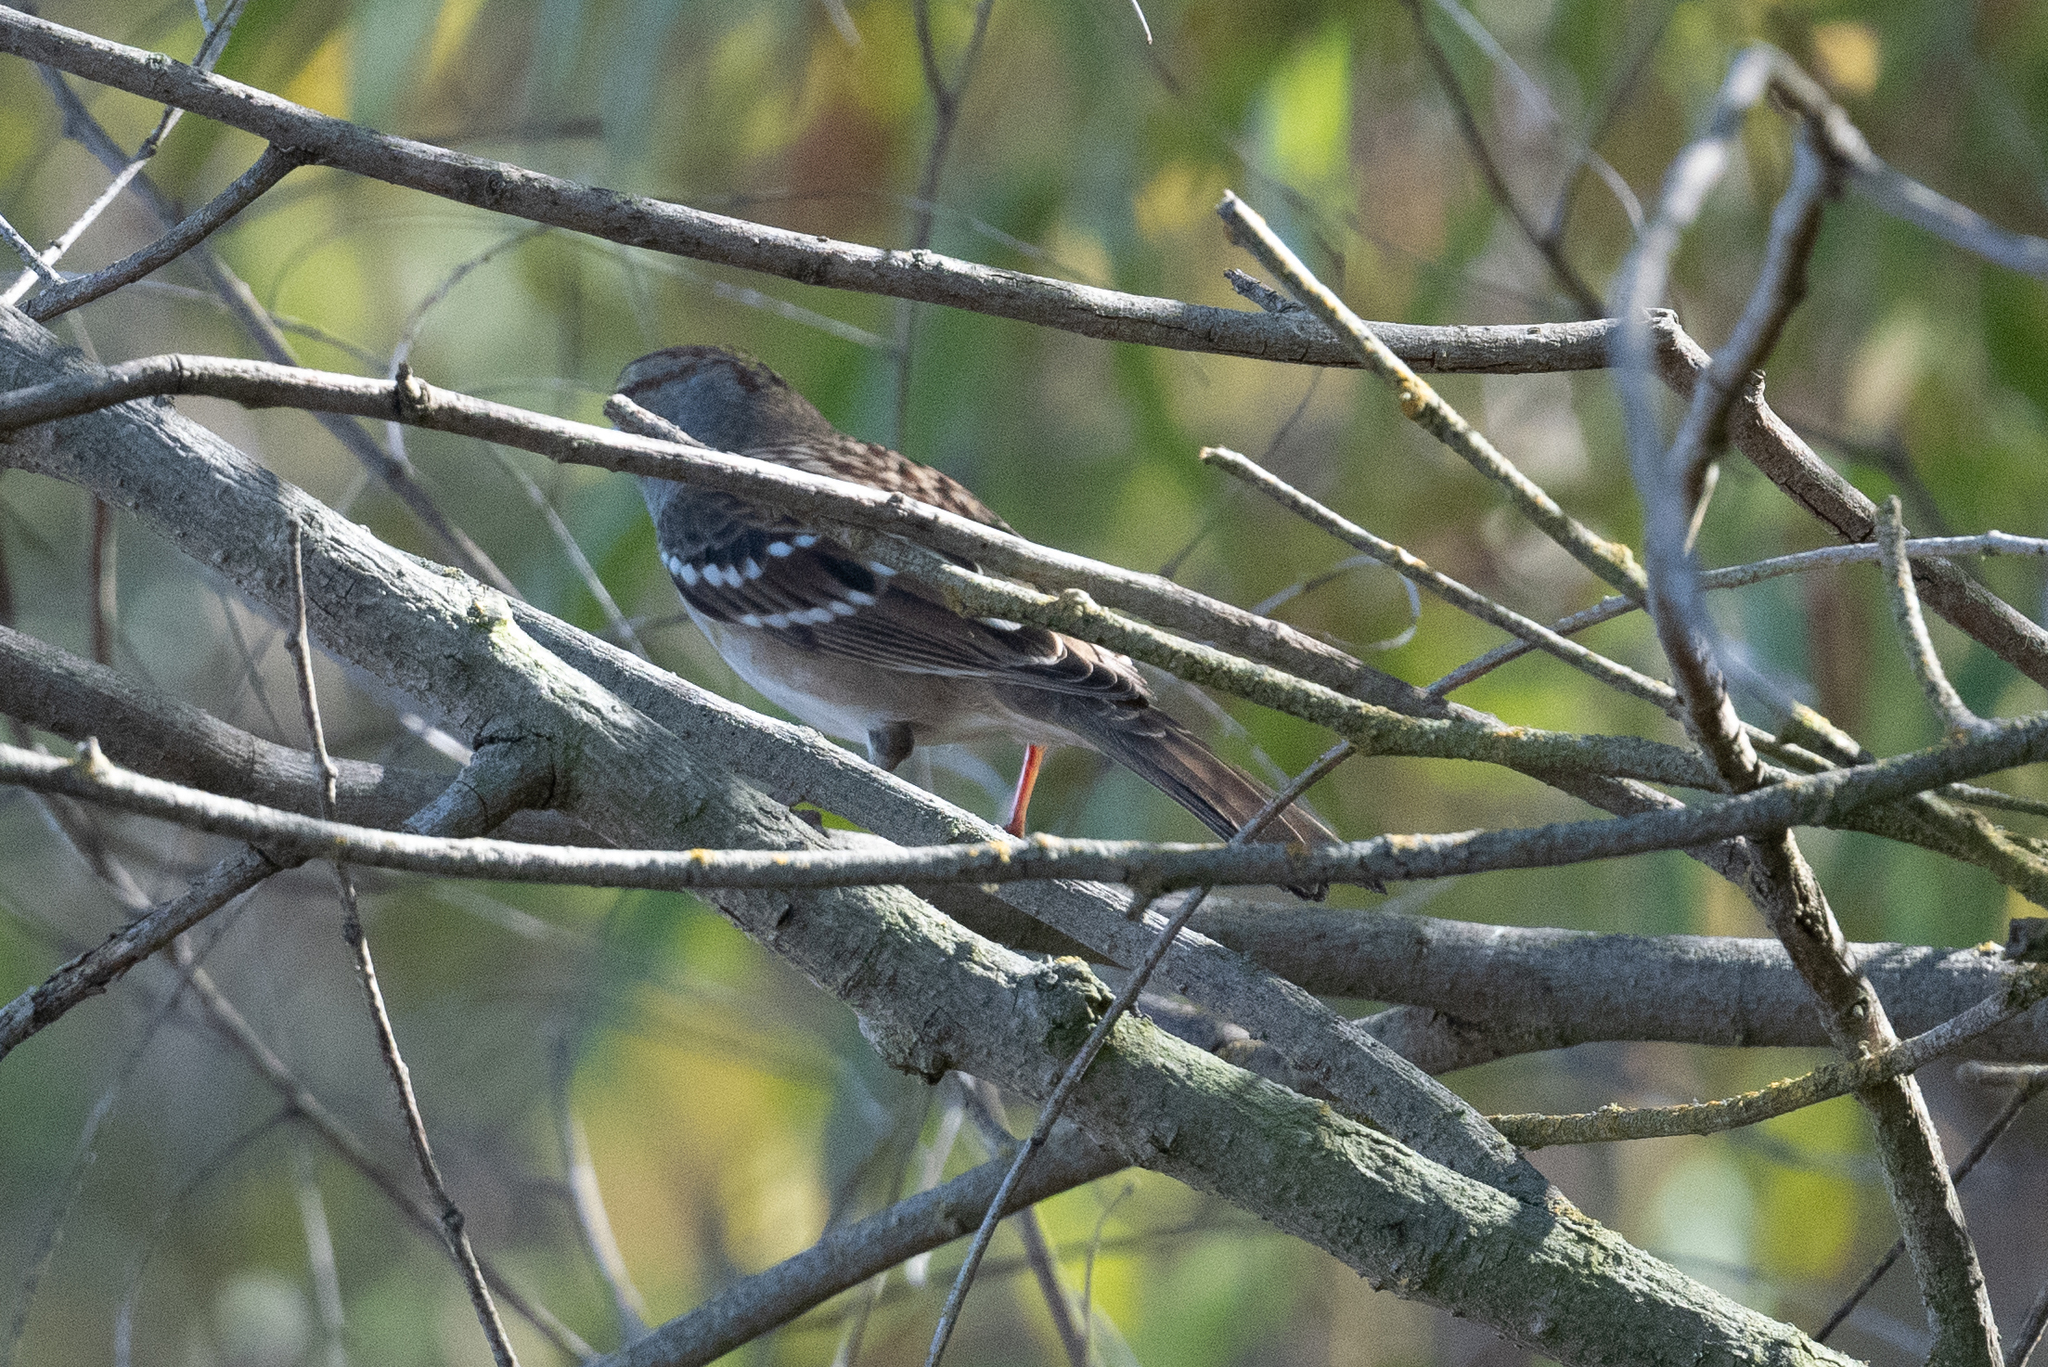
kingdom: Animalia
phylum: Chordata
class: Aves
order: Passeriformes
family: Passerellidae
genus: Zonotrichia
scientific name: Zonotrichia leucophrys
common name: White-crowned sparrow
